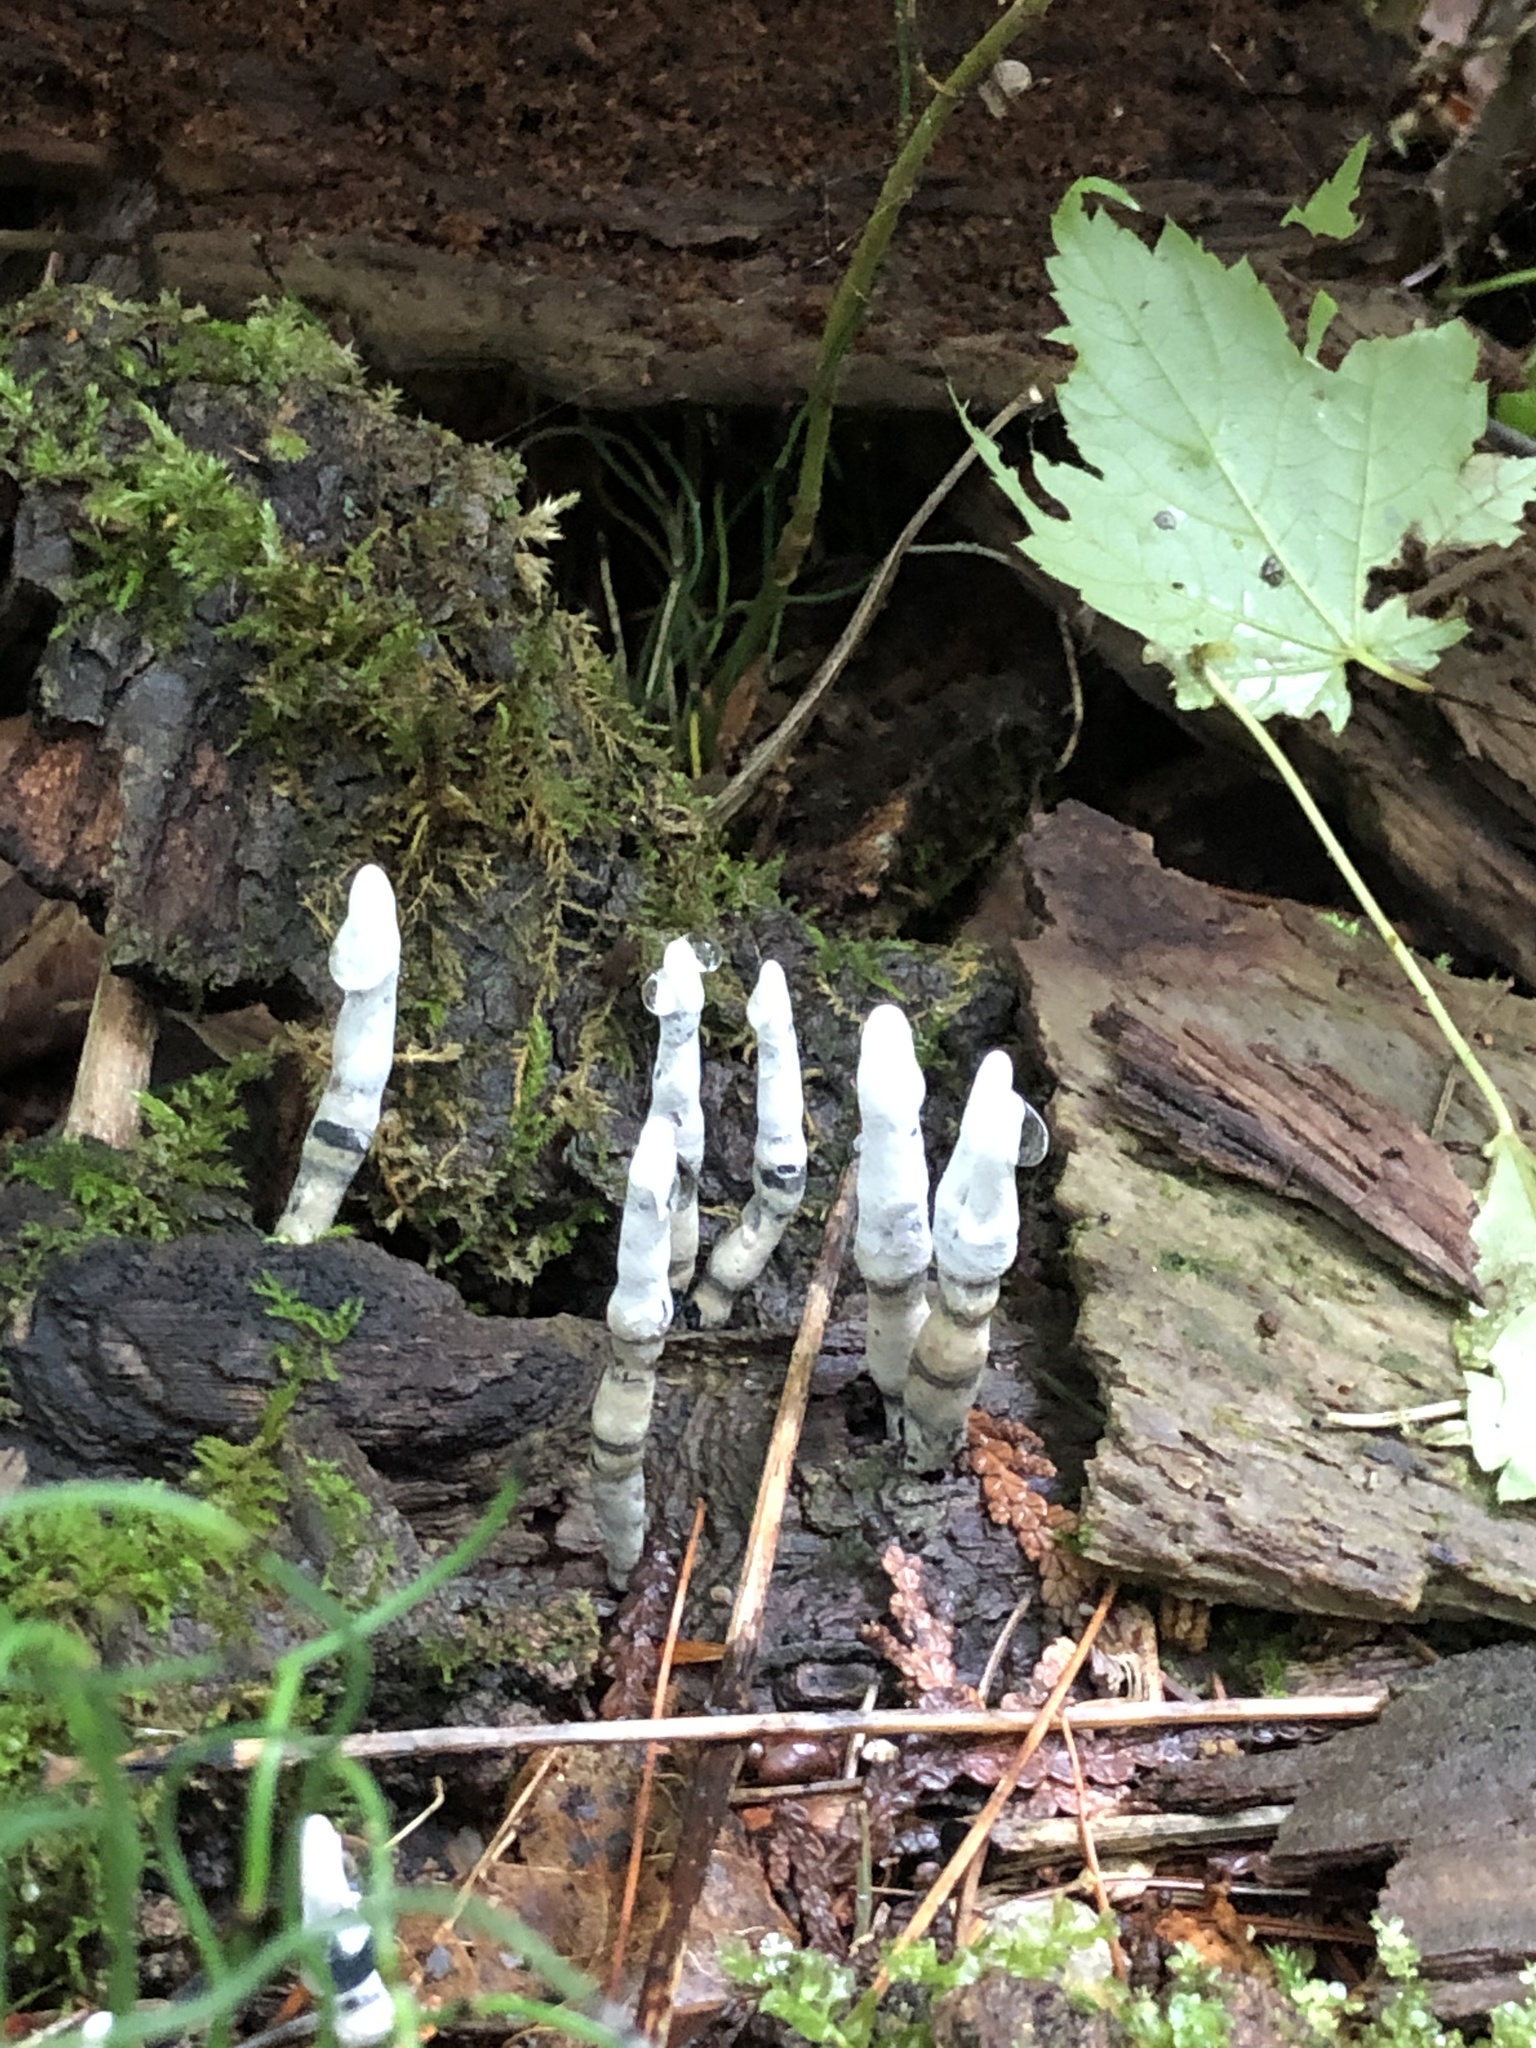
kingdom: Fungi
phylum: Ascomycota
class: Sordariomycetes
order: Xylariales
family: Xylariaceae
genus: Xylaria
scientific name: Xylaria polymorpha
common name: Dead man's fingers
